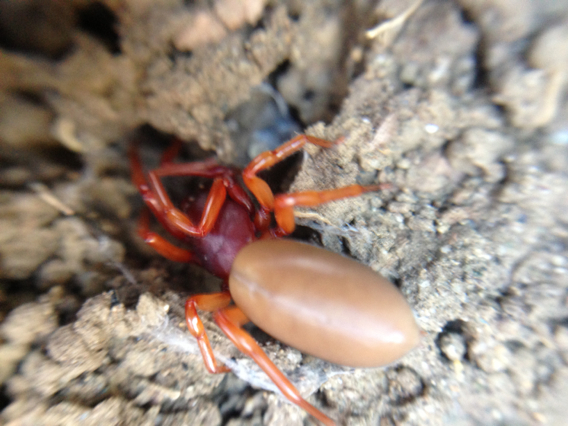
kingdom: Animalia
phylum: Arthropoda
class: Arachnida
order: Araneae
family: Dysderidae
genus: Dysdera
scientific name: Dysdera crocata
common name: Woodlouse spider
